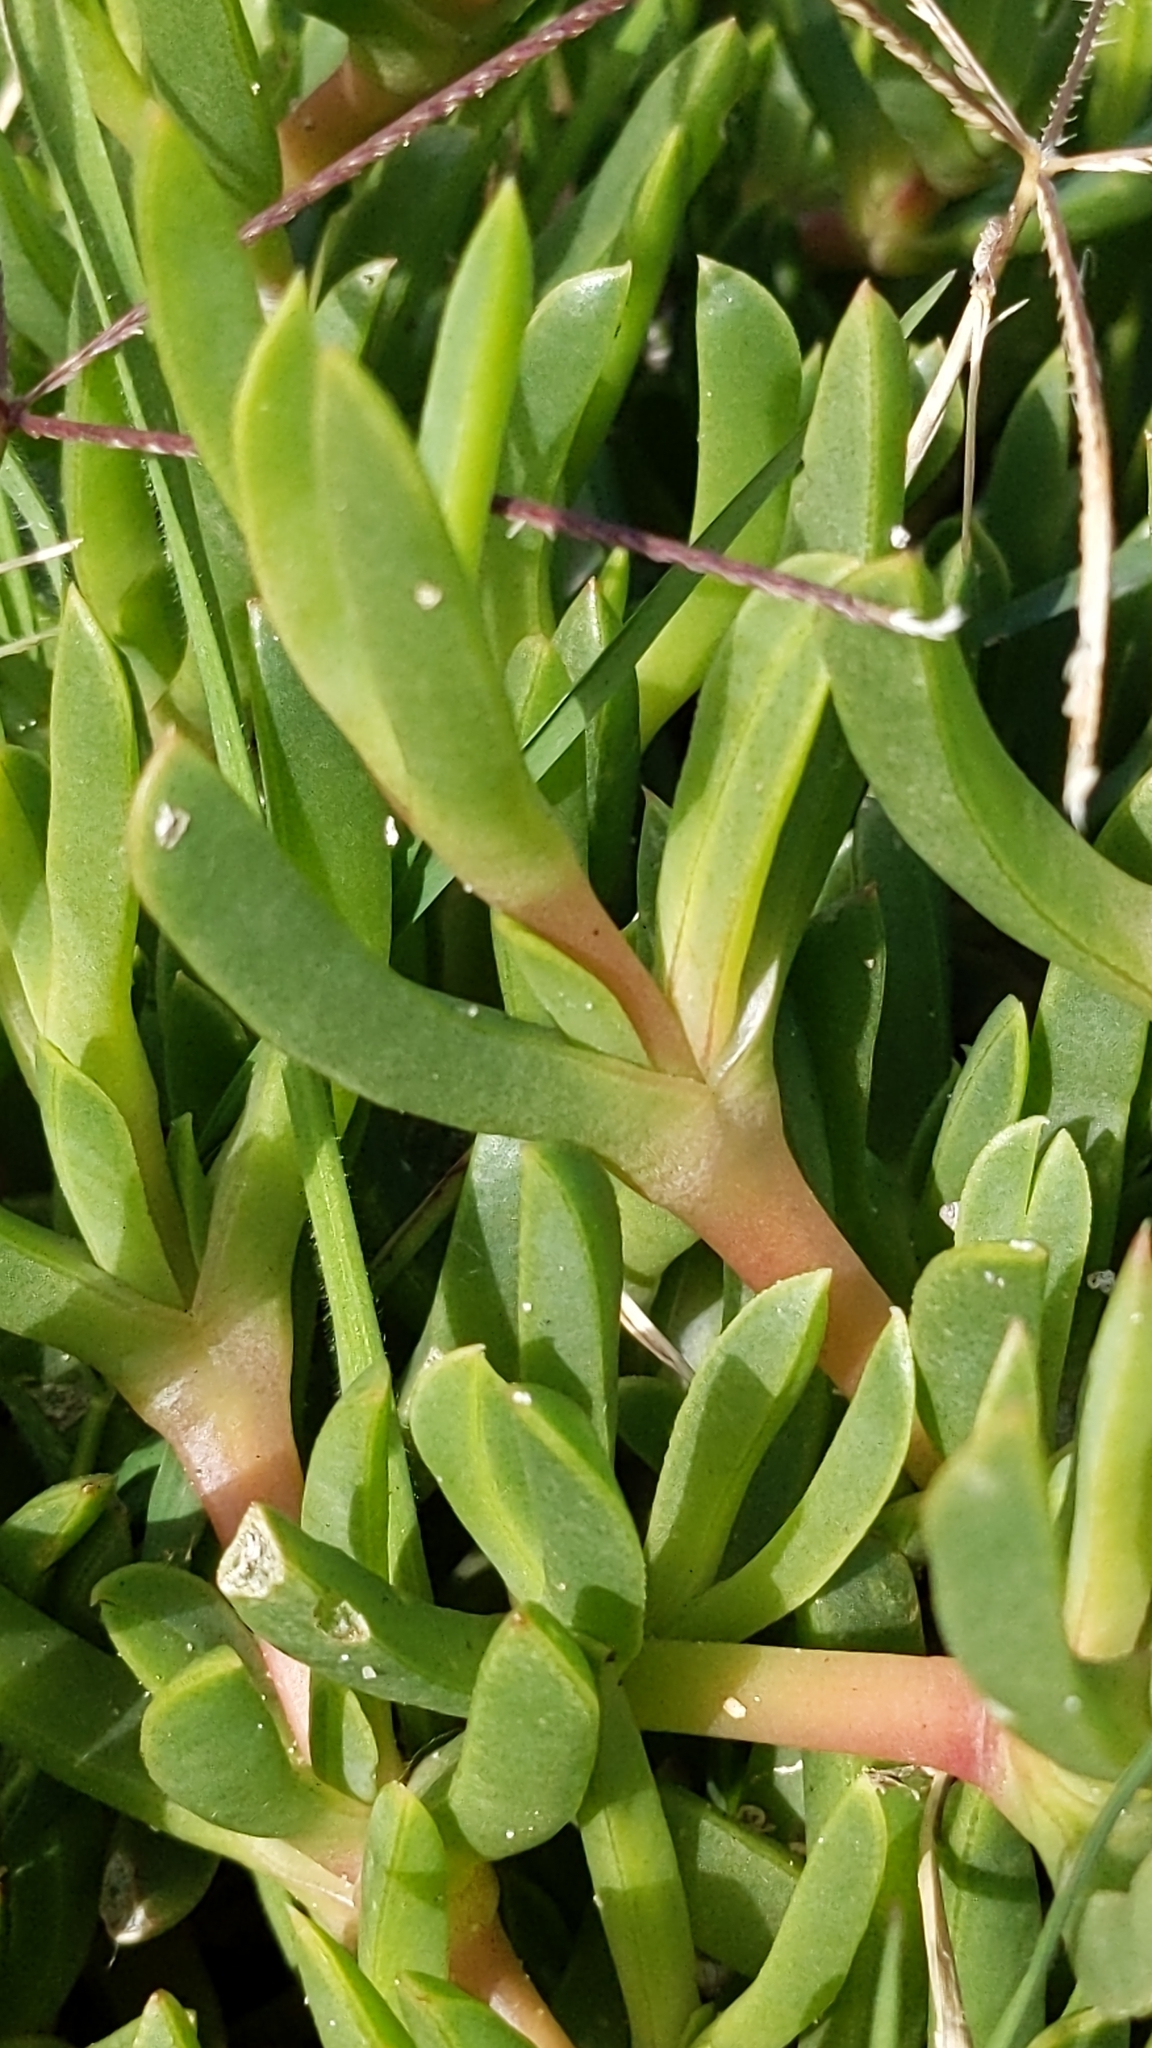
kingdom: Plantae
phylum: Tracheophyta
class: Magnoliopsida
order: Caryophyllales
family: Aizoaceae
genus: Disphyma
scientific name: Disphyma australe
